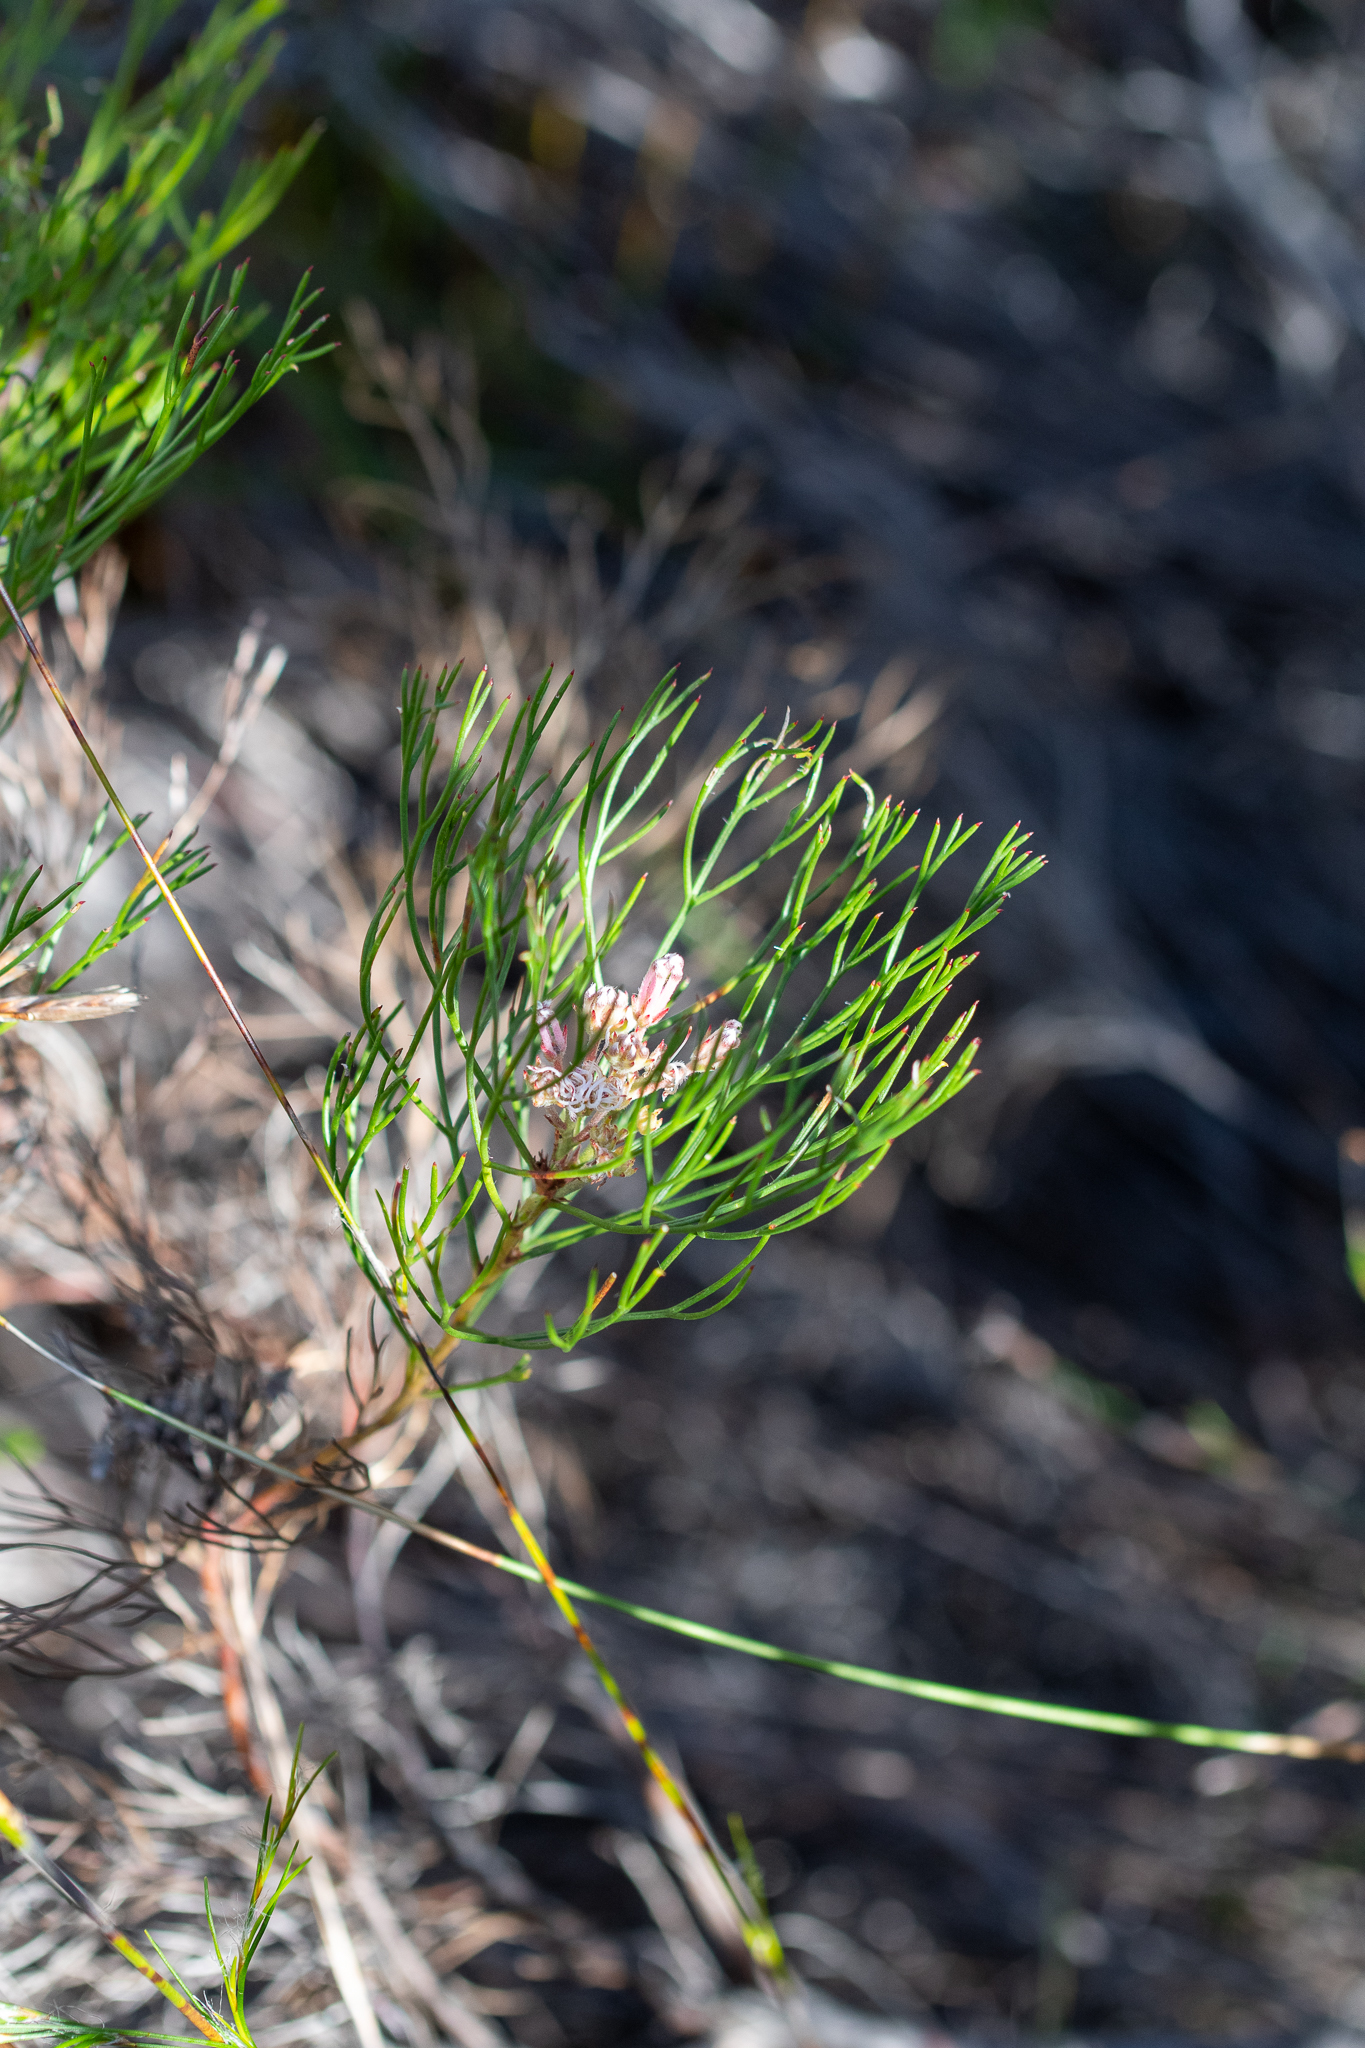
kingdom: Plantae
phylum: Tracheophyta
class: Magnoliopsida
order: Proteales
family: Proteaceae
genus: Serruria
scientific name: Serruria fasciflora
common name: Common pin spiderhead
